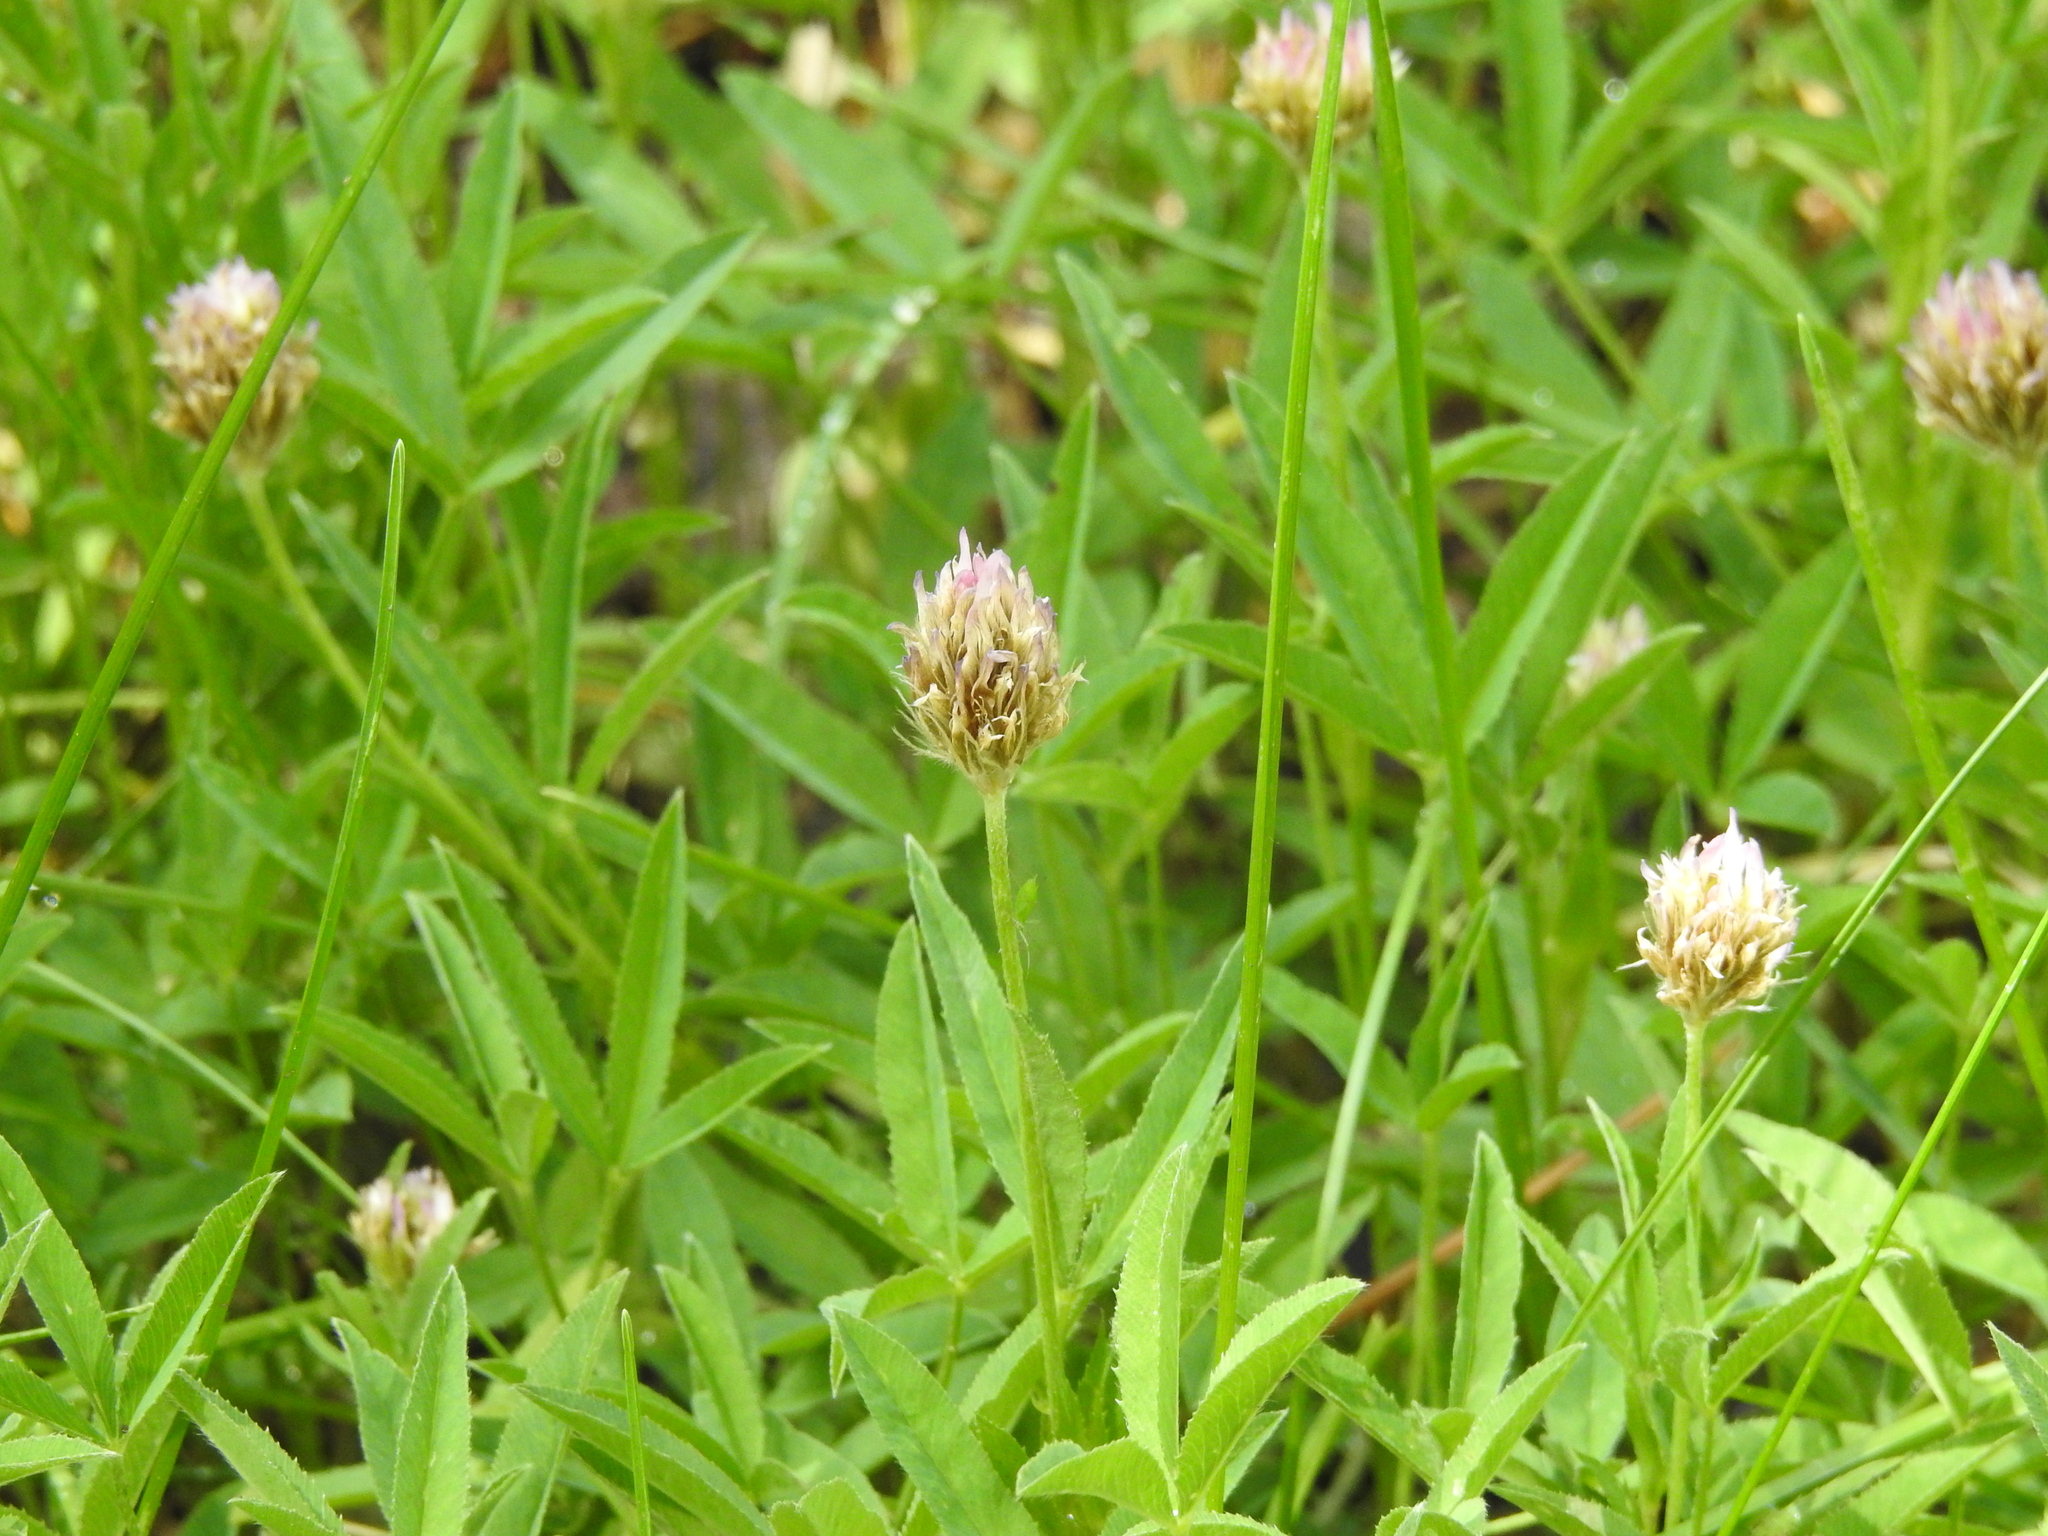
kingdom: Plantae
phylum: Tracheophyta
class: Magnoliopsida
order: Fabales
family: Fabaceae
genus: Trifolium
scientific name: Trifolium longipes
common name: Long-stalk clover
